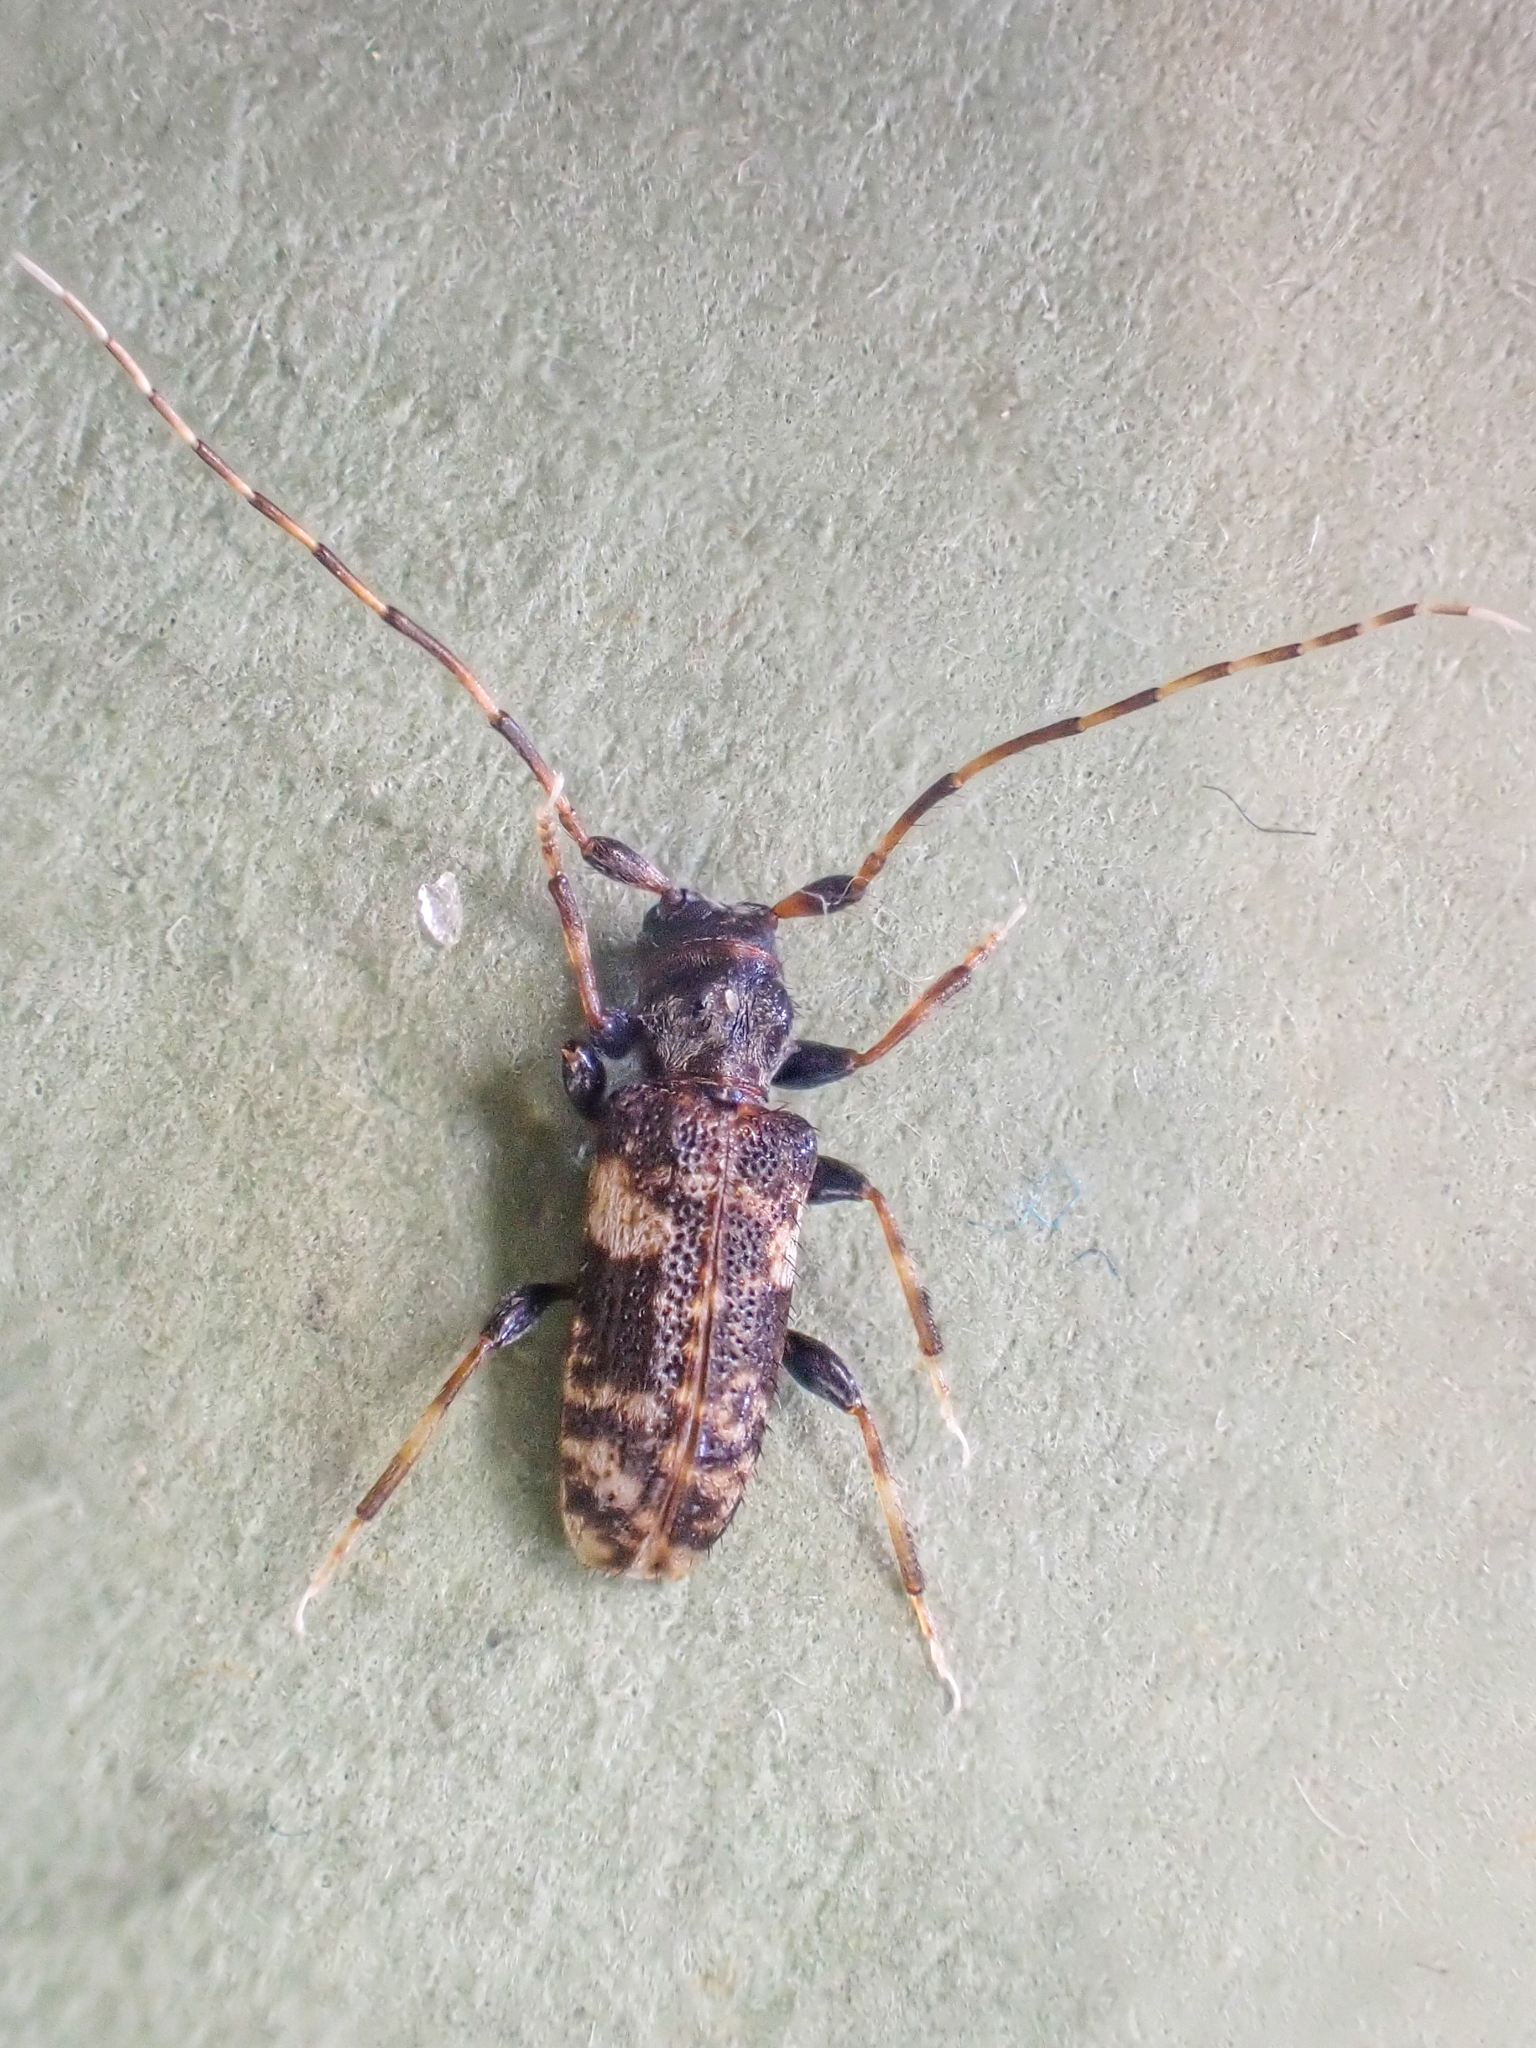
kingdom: Animalia
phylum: Arthropoda
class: Insecta
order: Coleoptera
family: Cerambycidae
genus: Pogonocherus
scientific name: Pogonocherus mixtus
